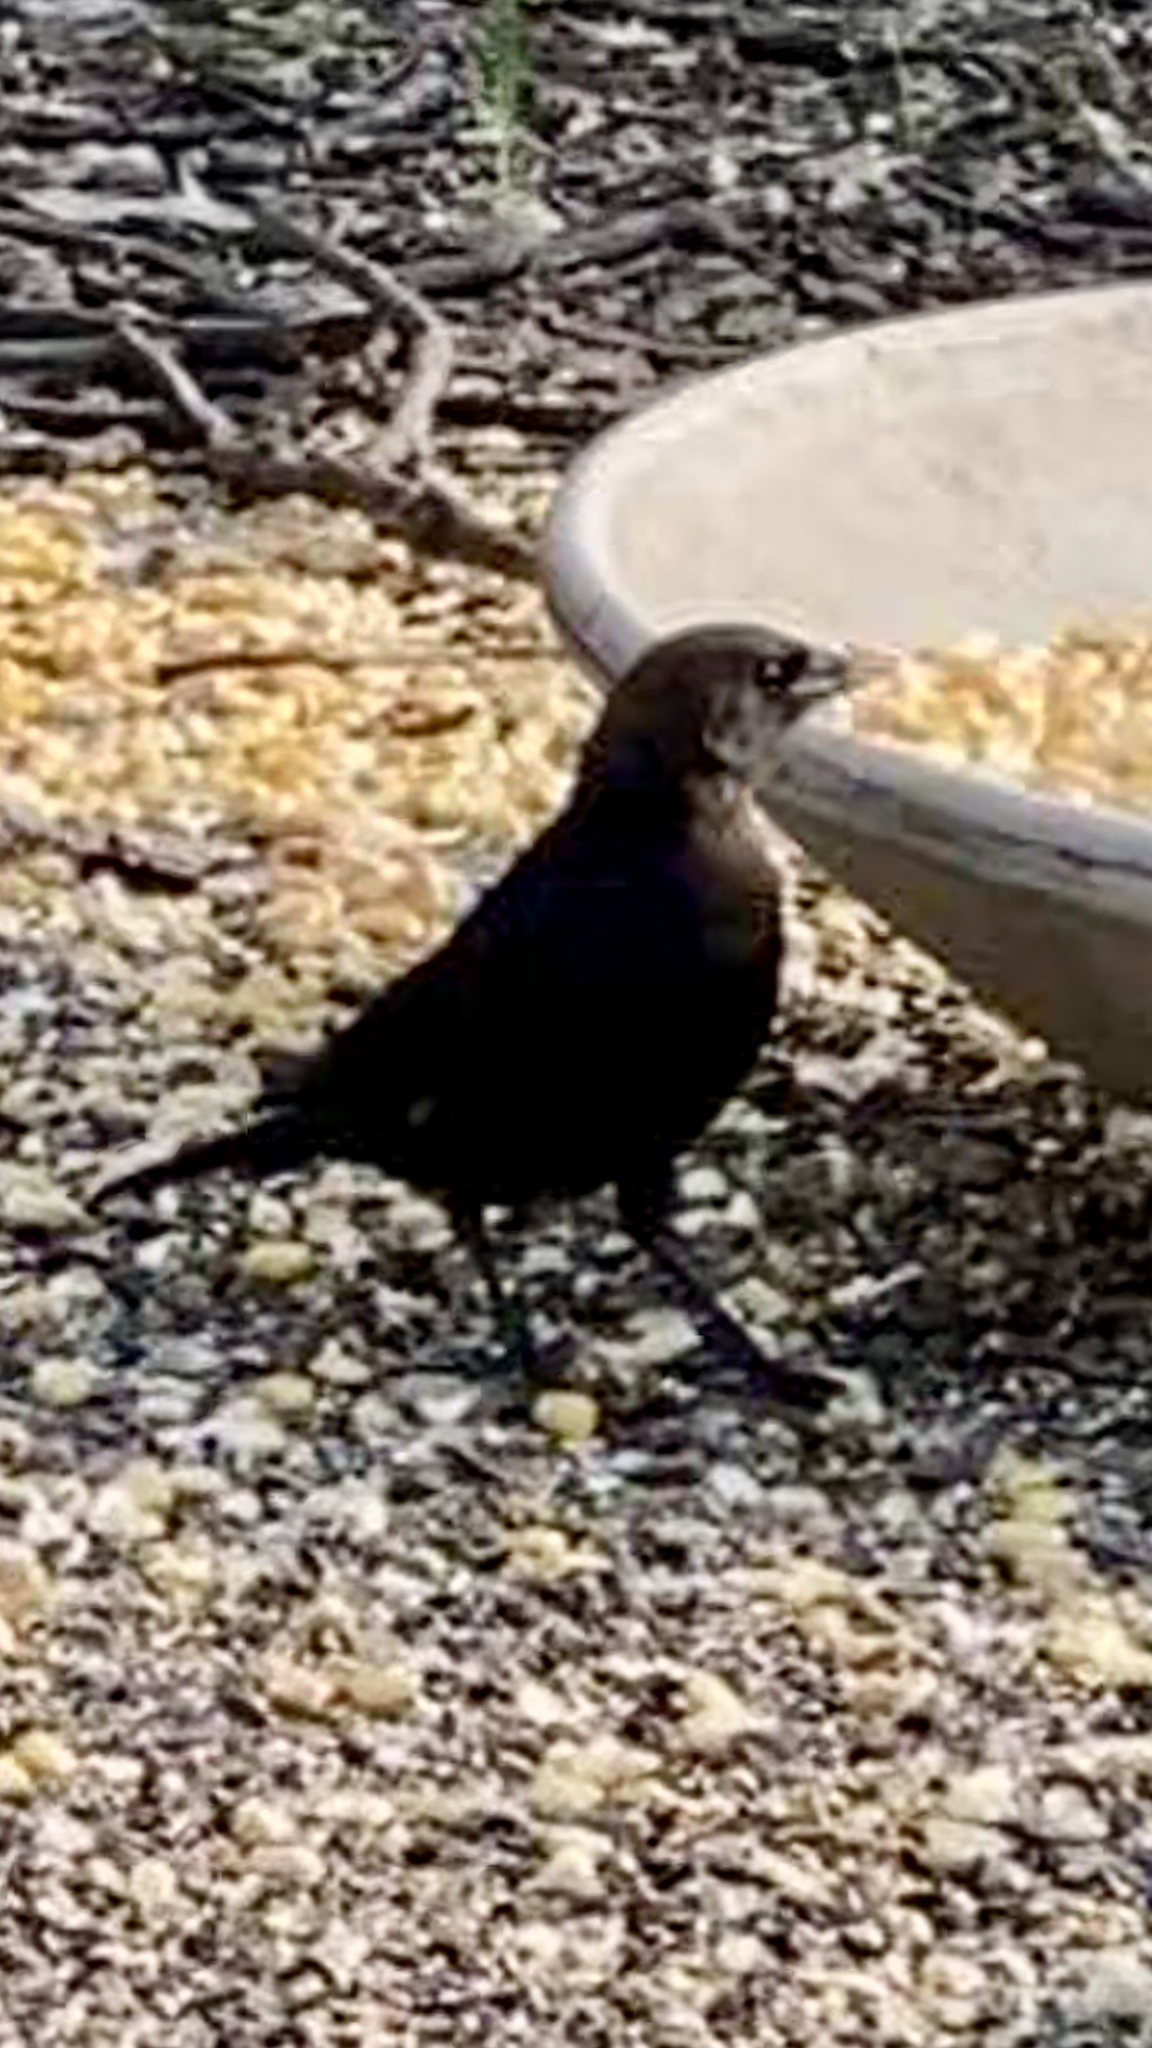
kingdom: Animalia
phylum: Chordata
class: Aves
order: Passeriformes
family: Icteridae
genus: Molothrus
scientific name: Molothrus ater
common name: Brown-headed cowbird
